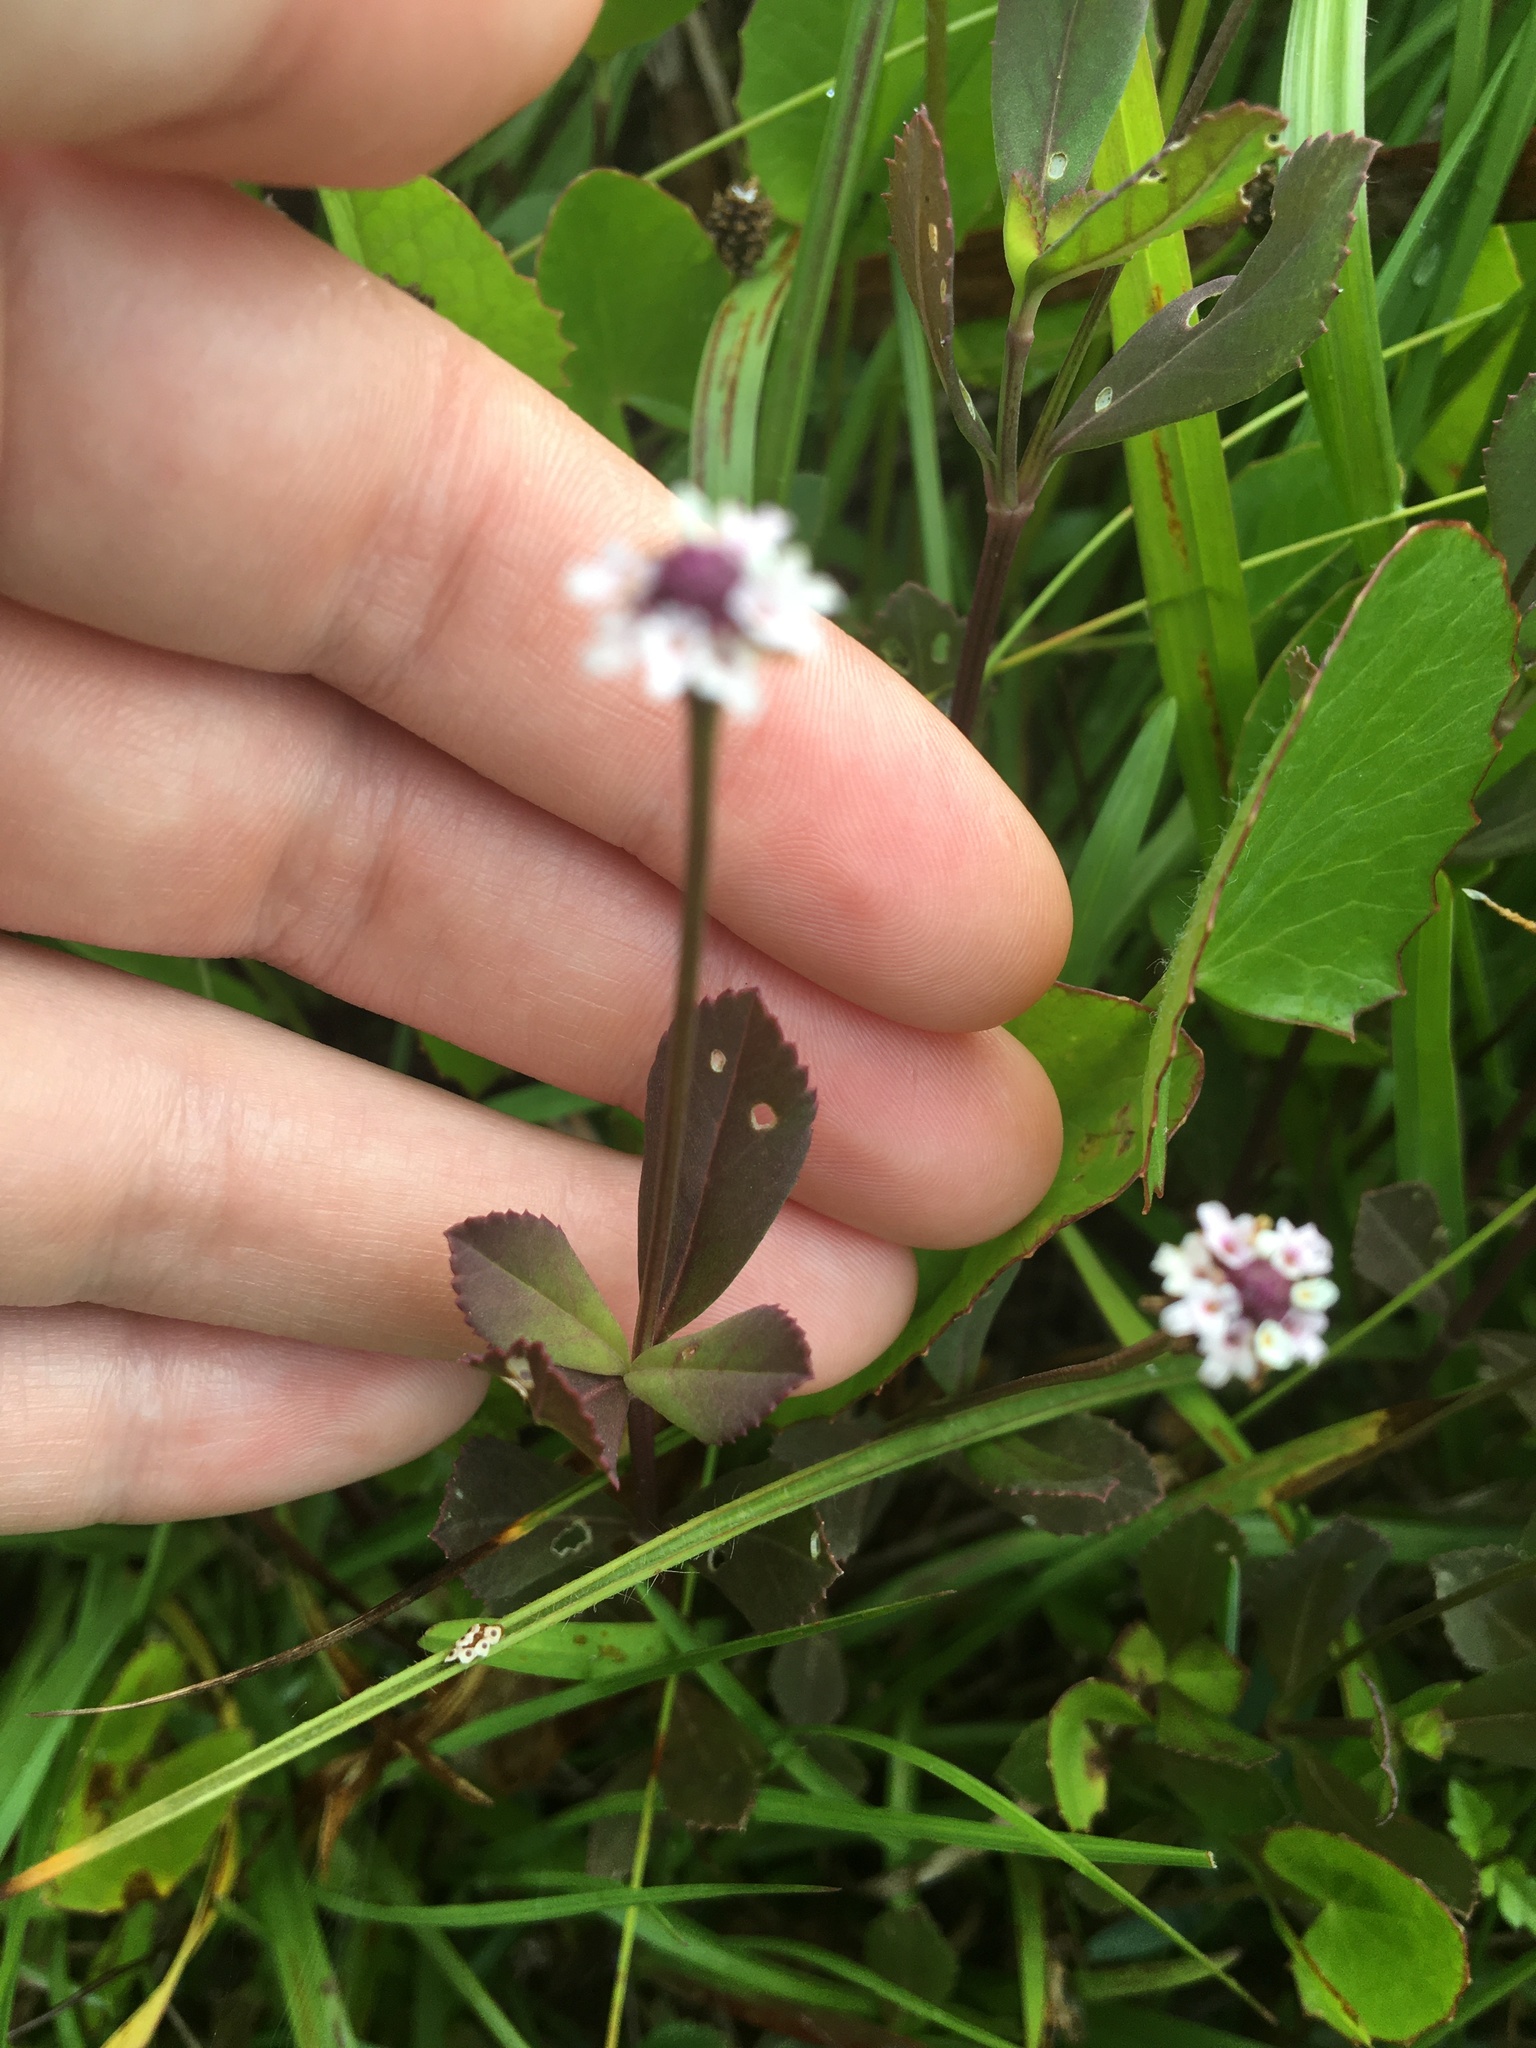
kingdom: Plantae
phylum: Tracheophyta
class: Magnoliopsida
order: Lamiales
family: Verbenaceae
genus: Phyla
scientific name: Phyla nodiflora
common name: Frogfruit
